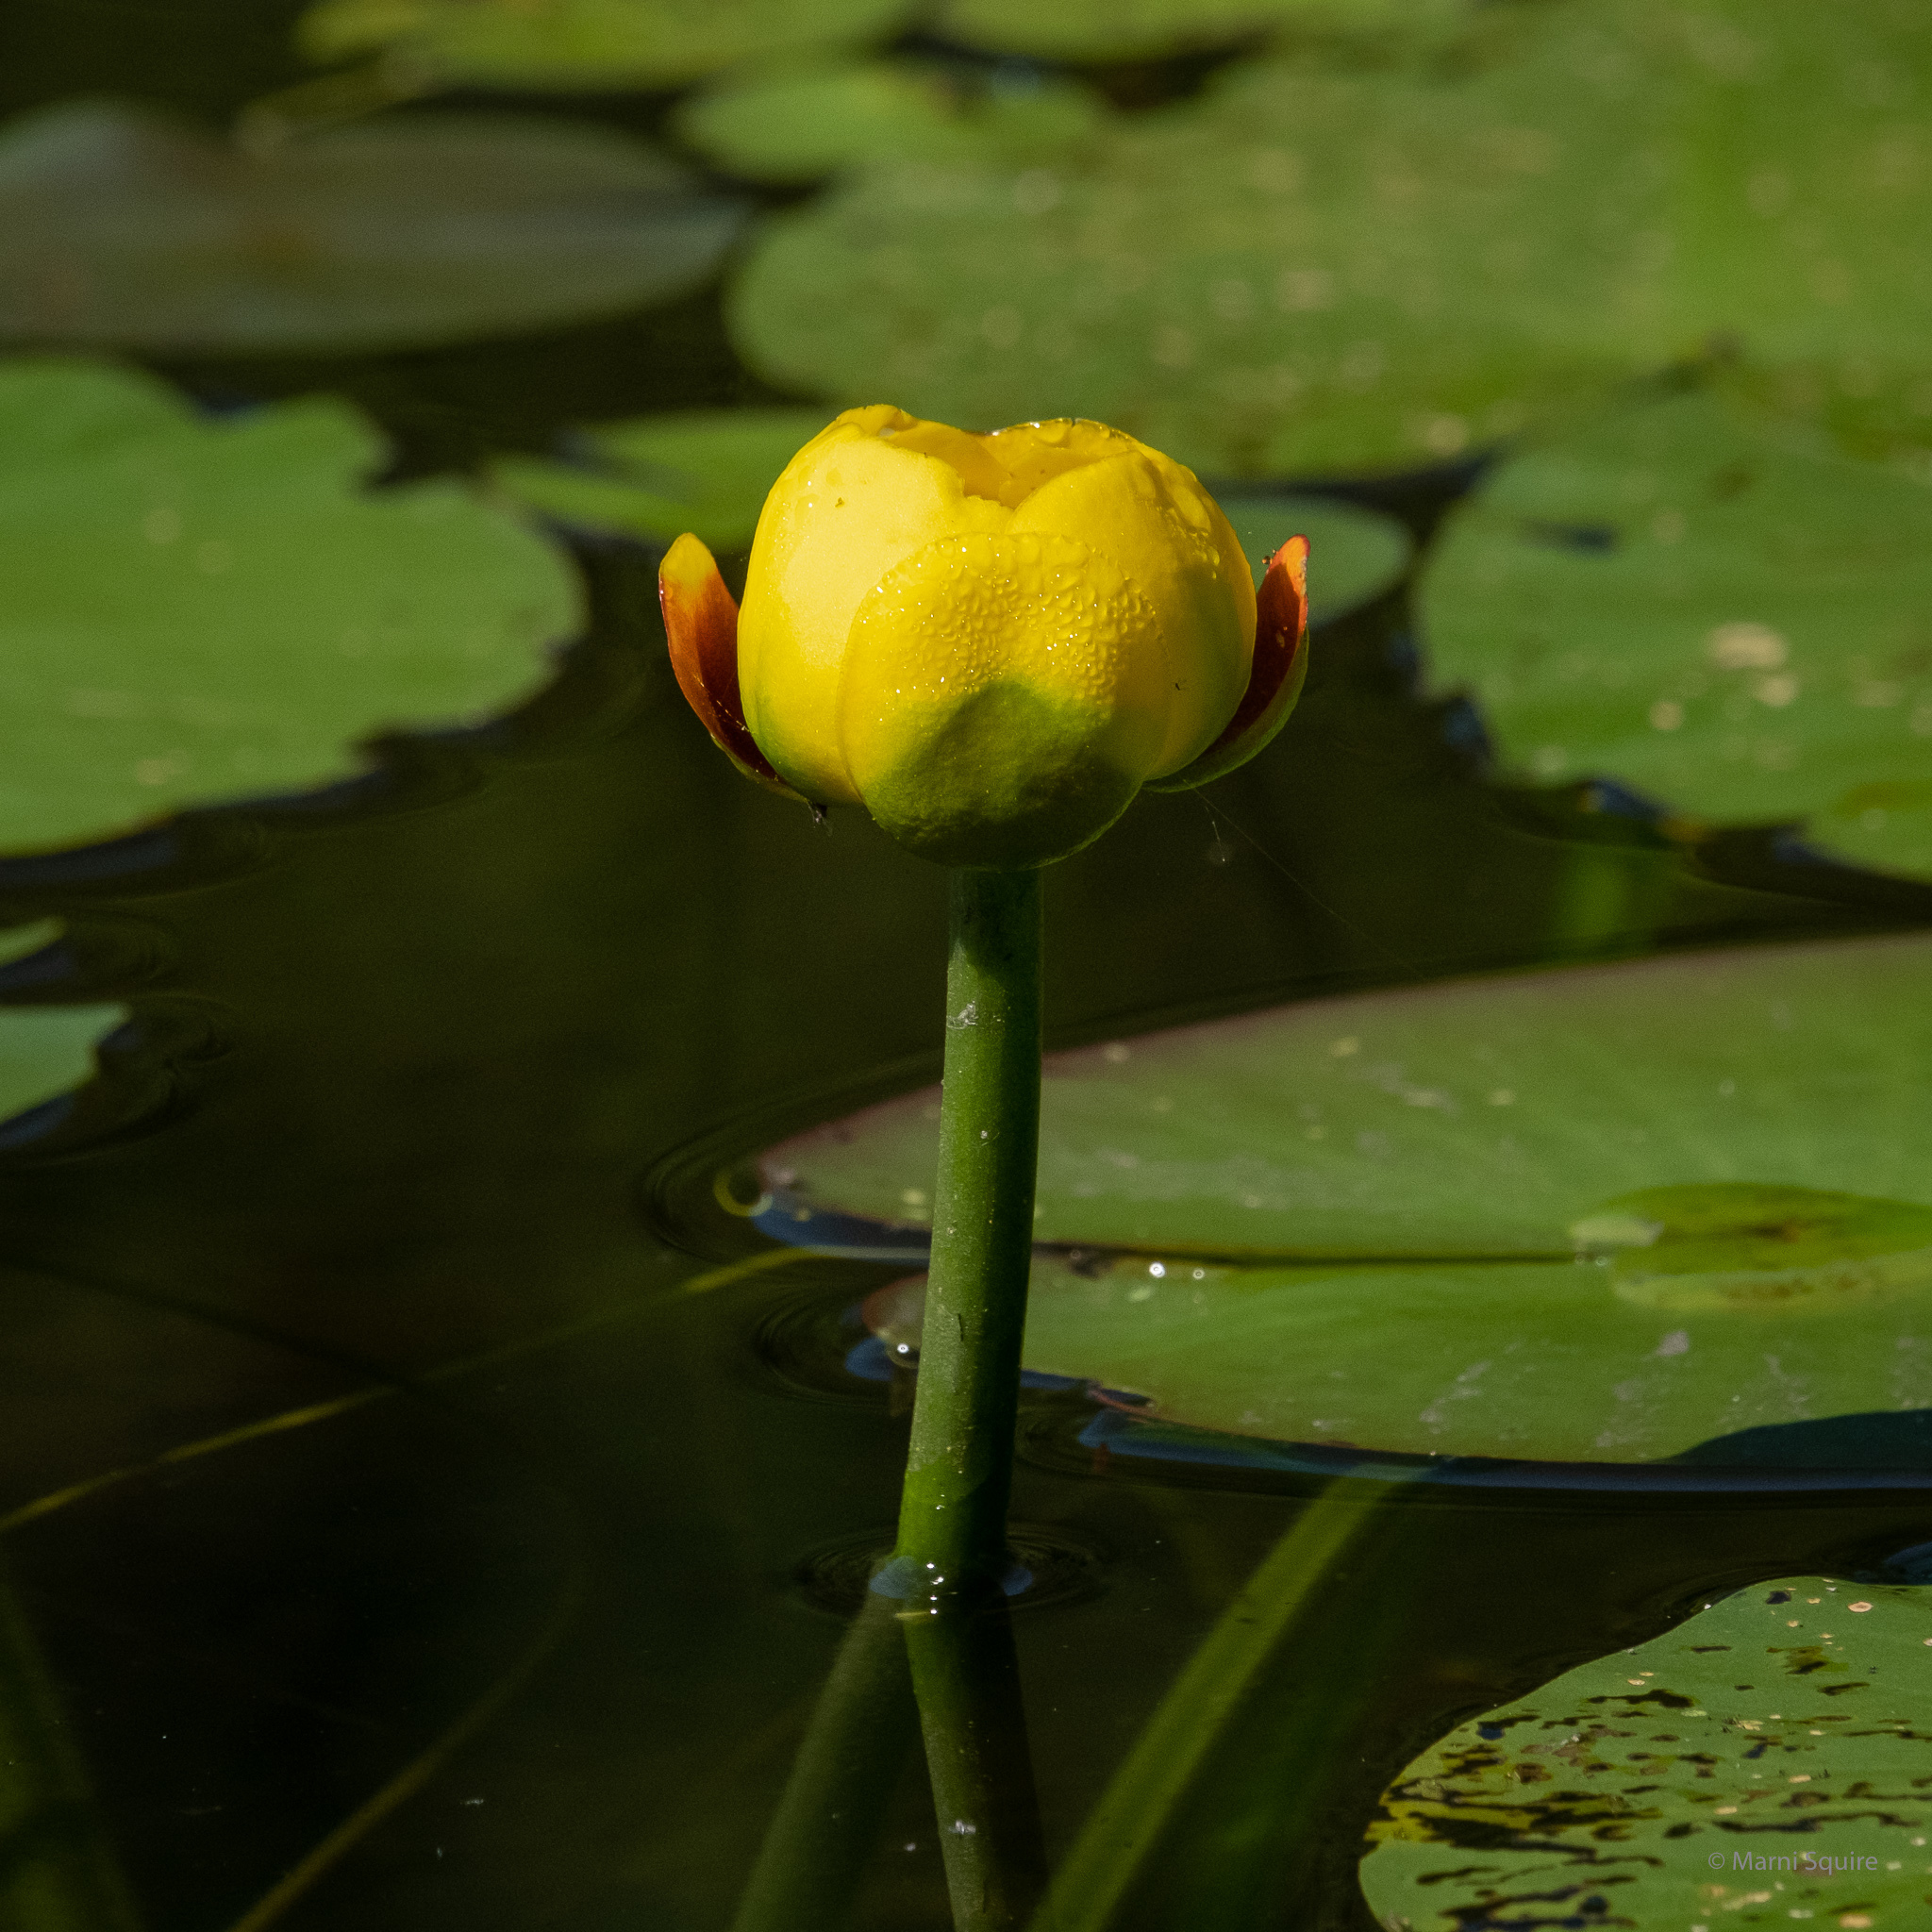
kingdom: Plantae
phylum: Tracheophyta
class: Magnoliopsida
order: Nymphaeales
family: Nymphaeaceae
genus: Nuphar
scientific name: Nuphar variegata
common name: Beaver-root
